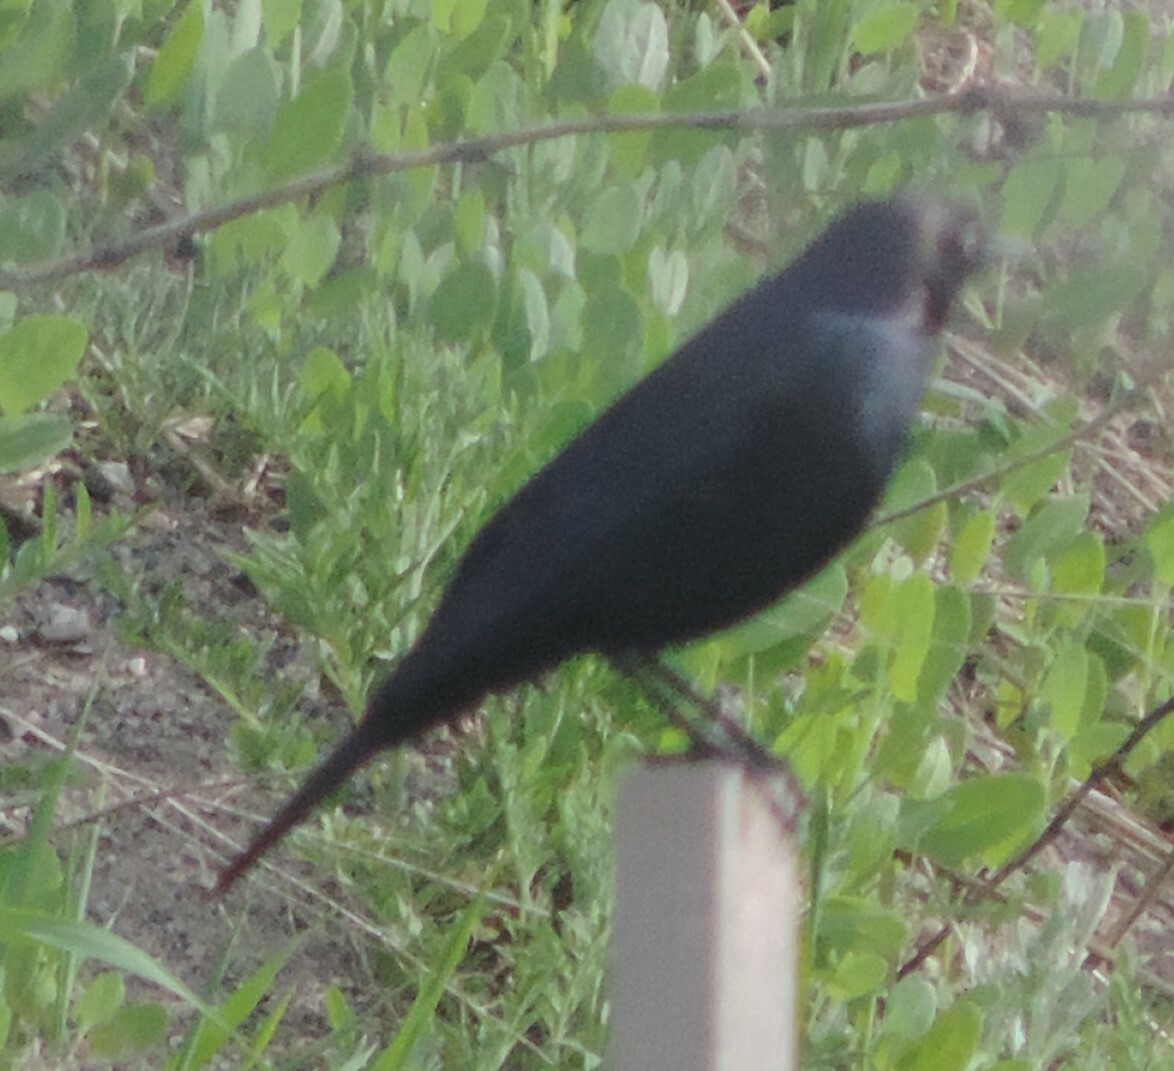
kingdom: Animalia
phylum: Chordata
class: Aves
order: Passeriformes
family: Icteridae
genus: Euphagus
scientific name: Euphagus cyanocephalus
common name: Brewer's blackbird
